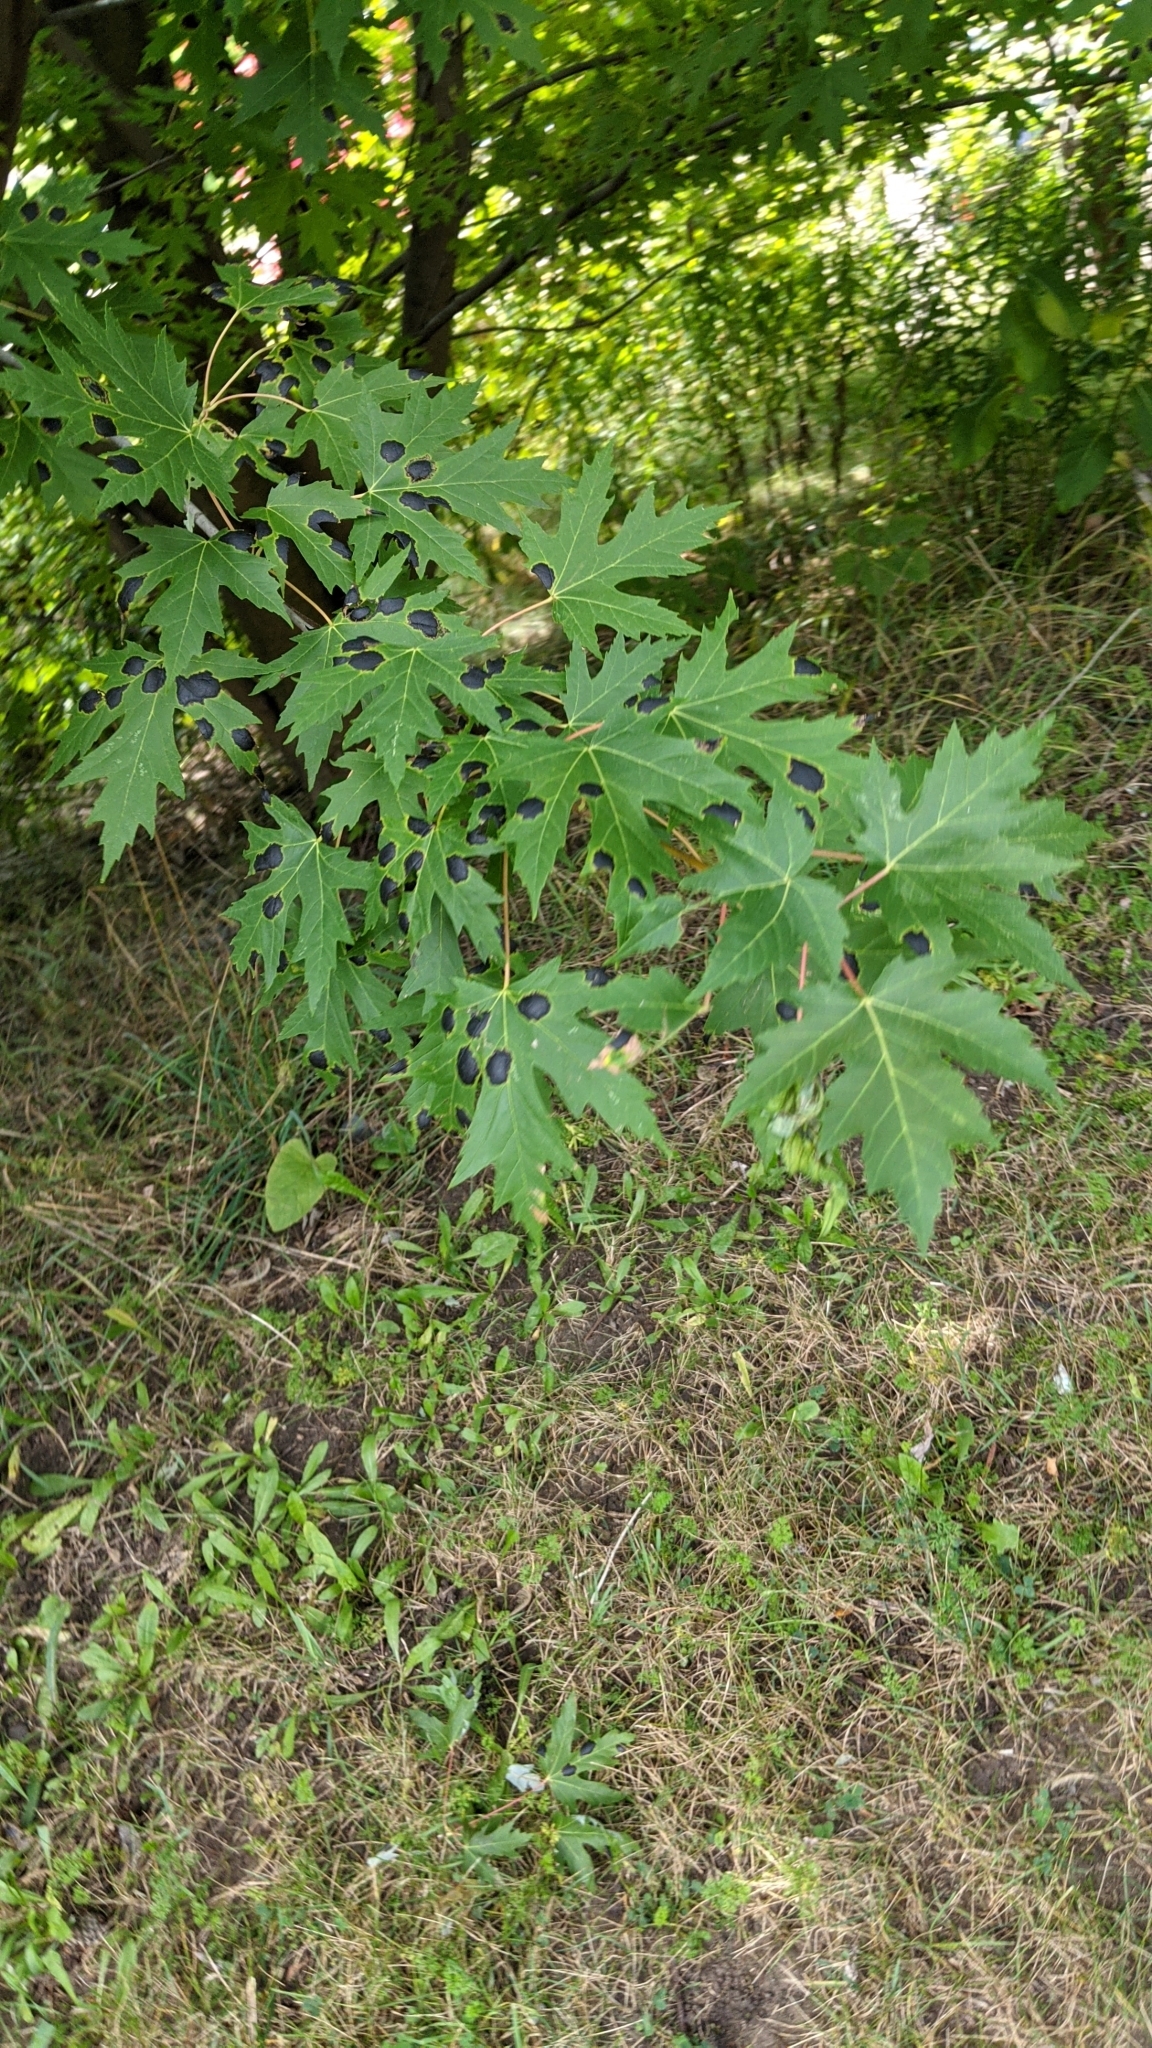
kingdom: Plantae
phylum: Tracheophyta
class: Magnoliopsida
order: Sapindales
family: Sapindaceae
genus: Acer
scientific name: Acer saccharinum
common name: Silver maple
